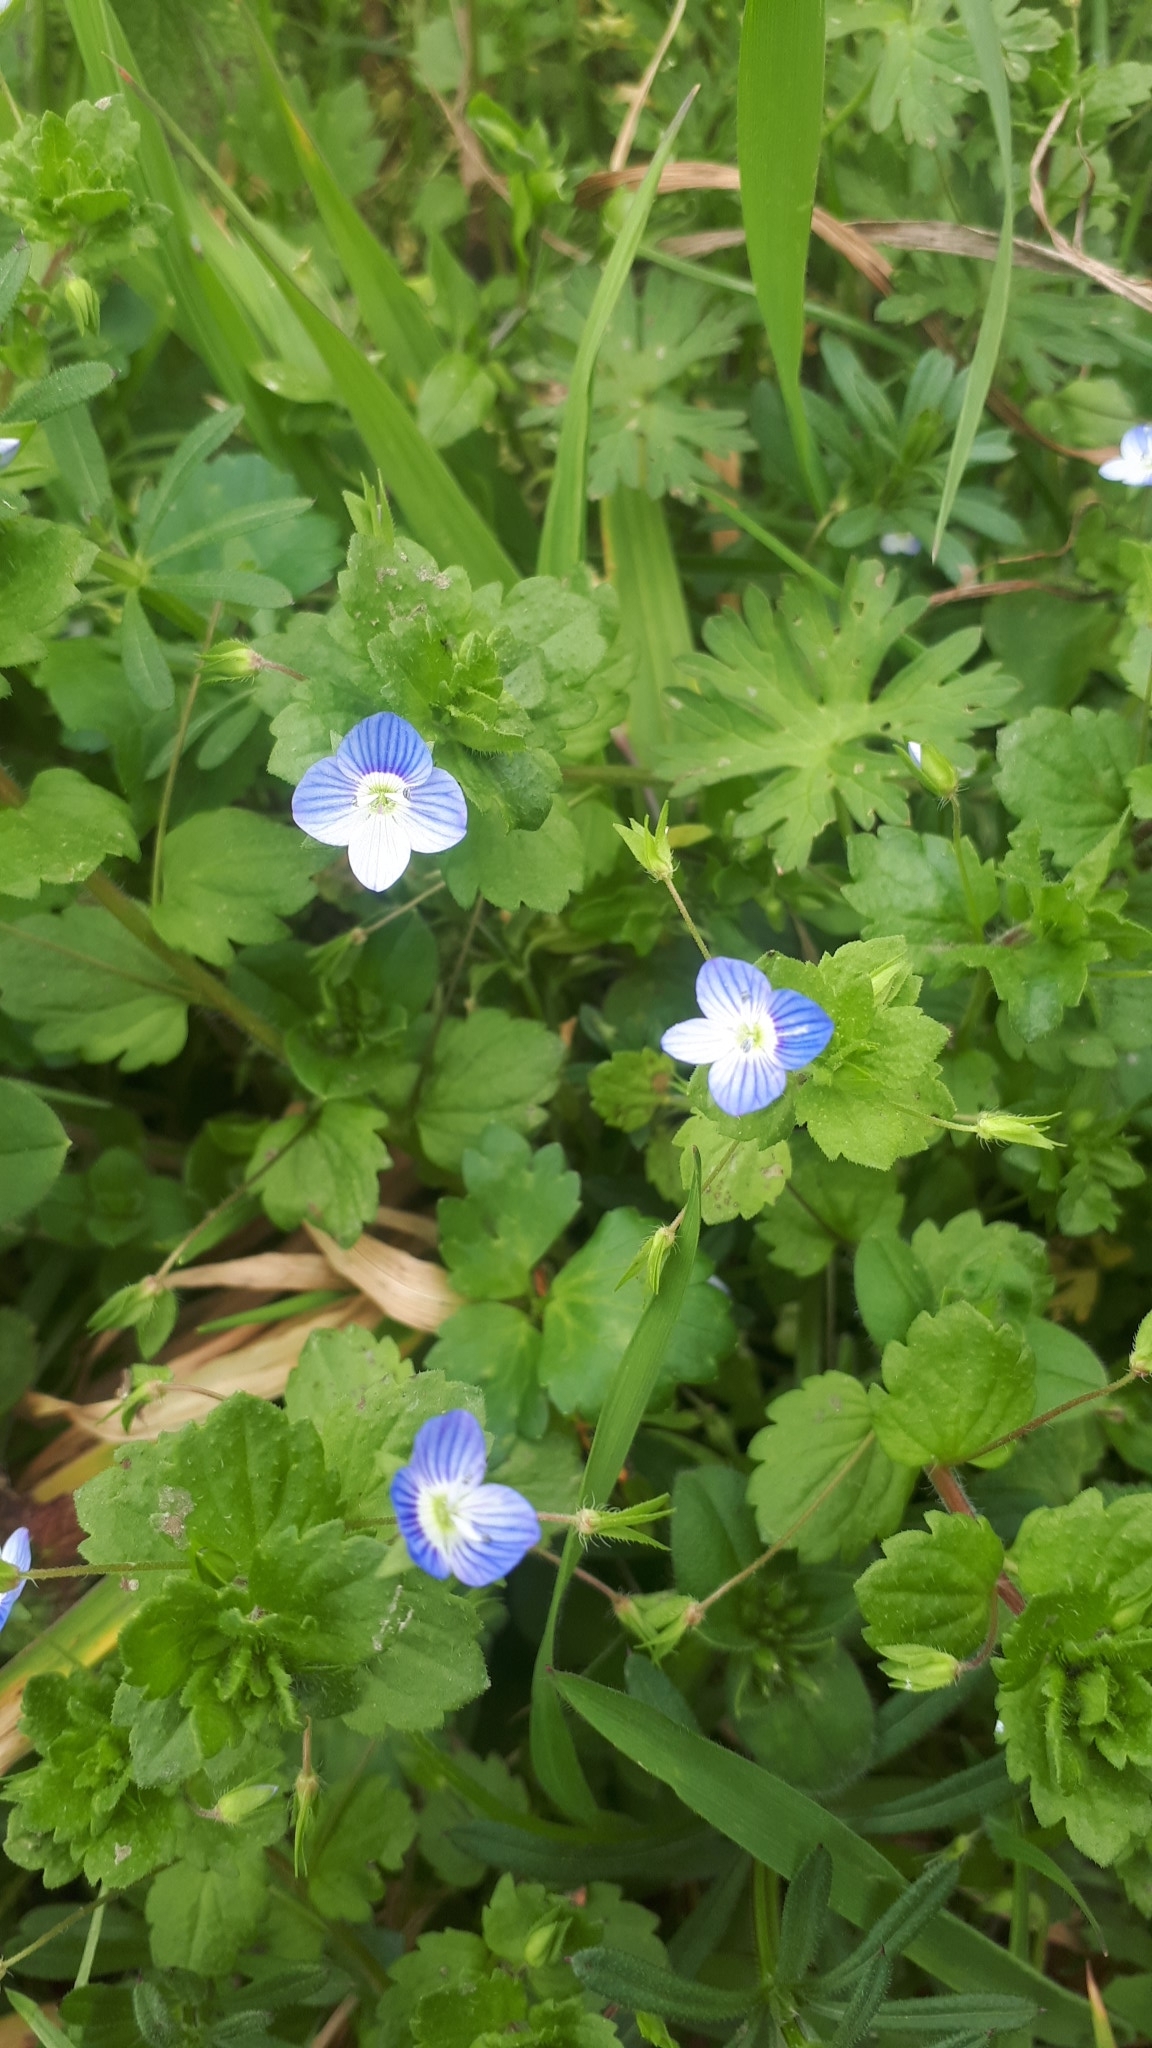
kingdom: Plantae
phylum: Tracheophyta
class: Magnoliopsida
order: Lamiales
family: Plantaginaceae
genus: Veronica
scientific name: Veronica persica
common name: Common field-speedwell
